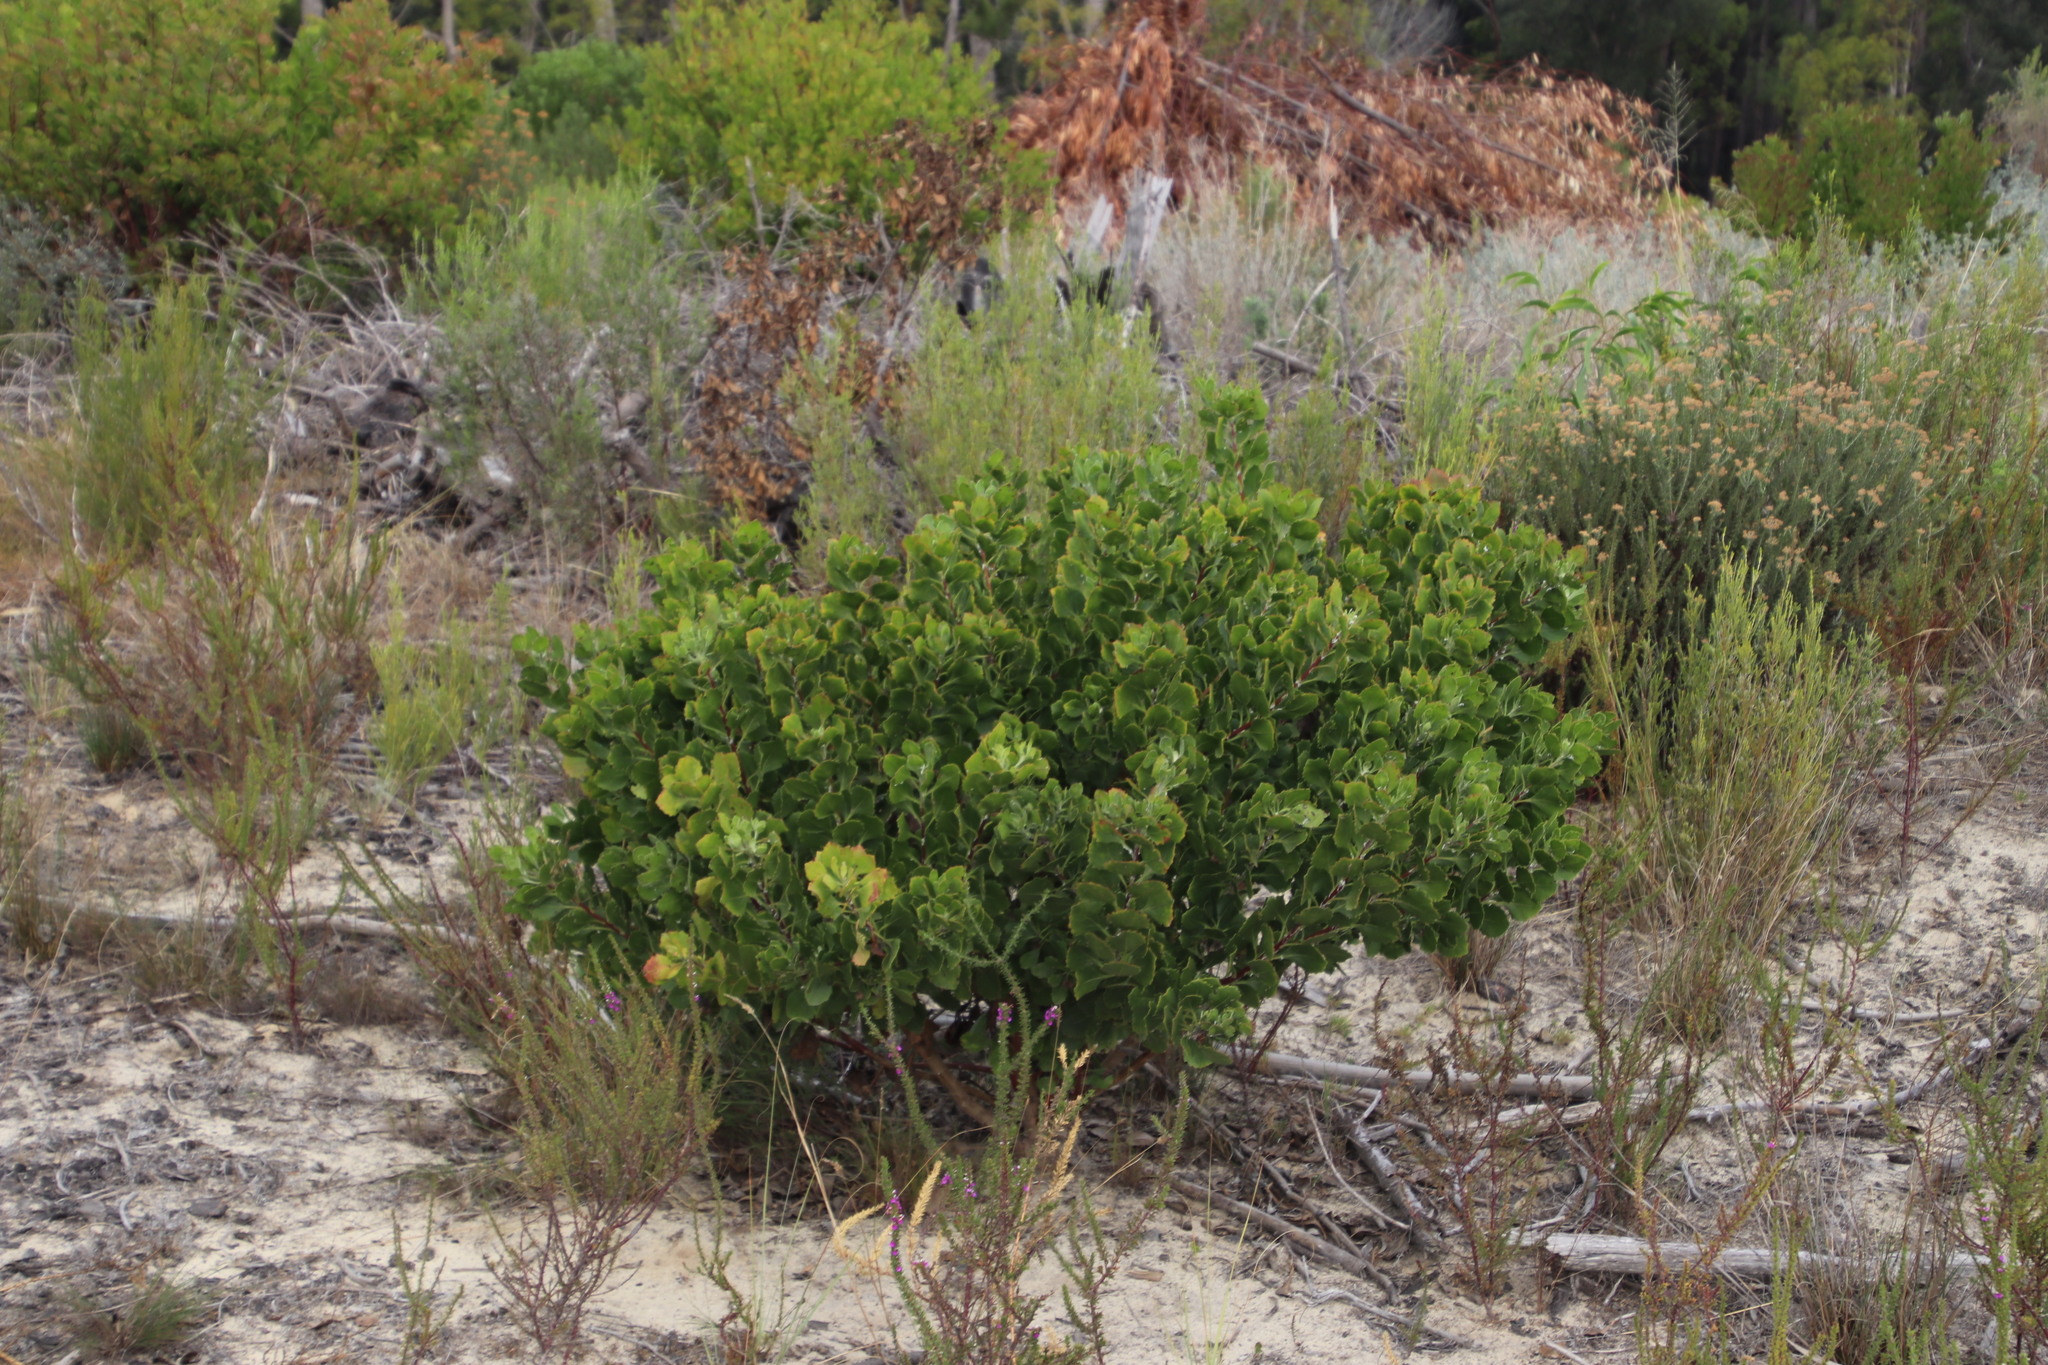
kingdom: Plantae
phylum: Tracheophyta
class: Magnoliopsida
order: Asterales
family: Asteraceae
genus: Osteospermum
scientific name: Osteospermum moniliferum
